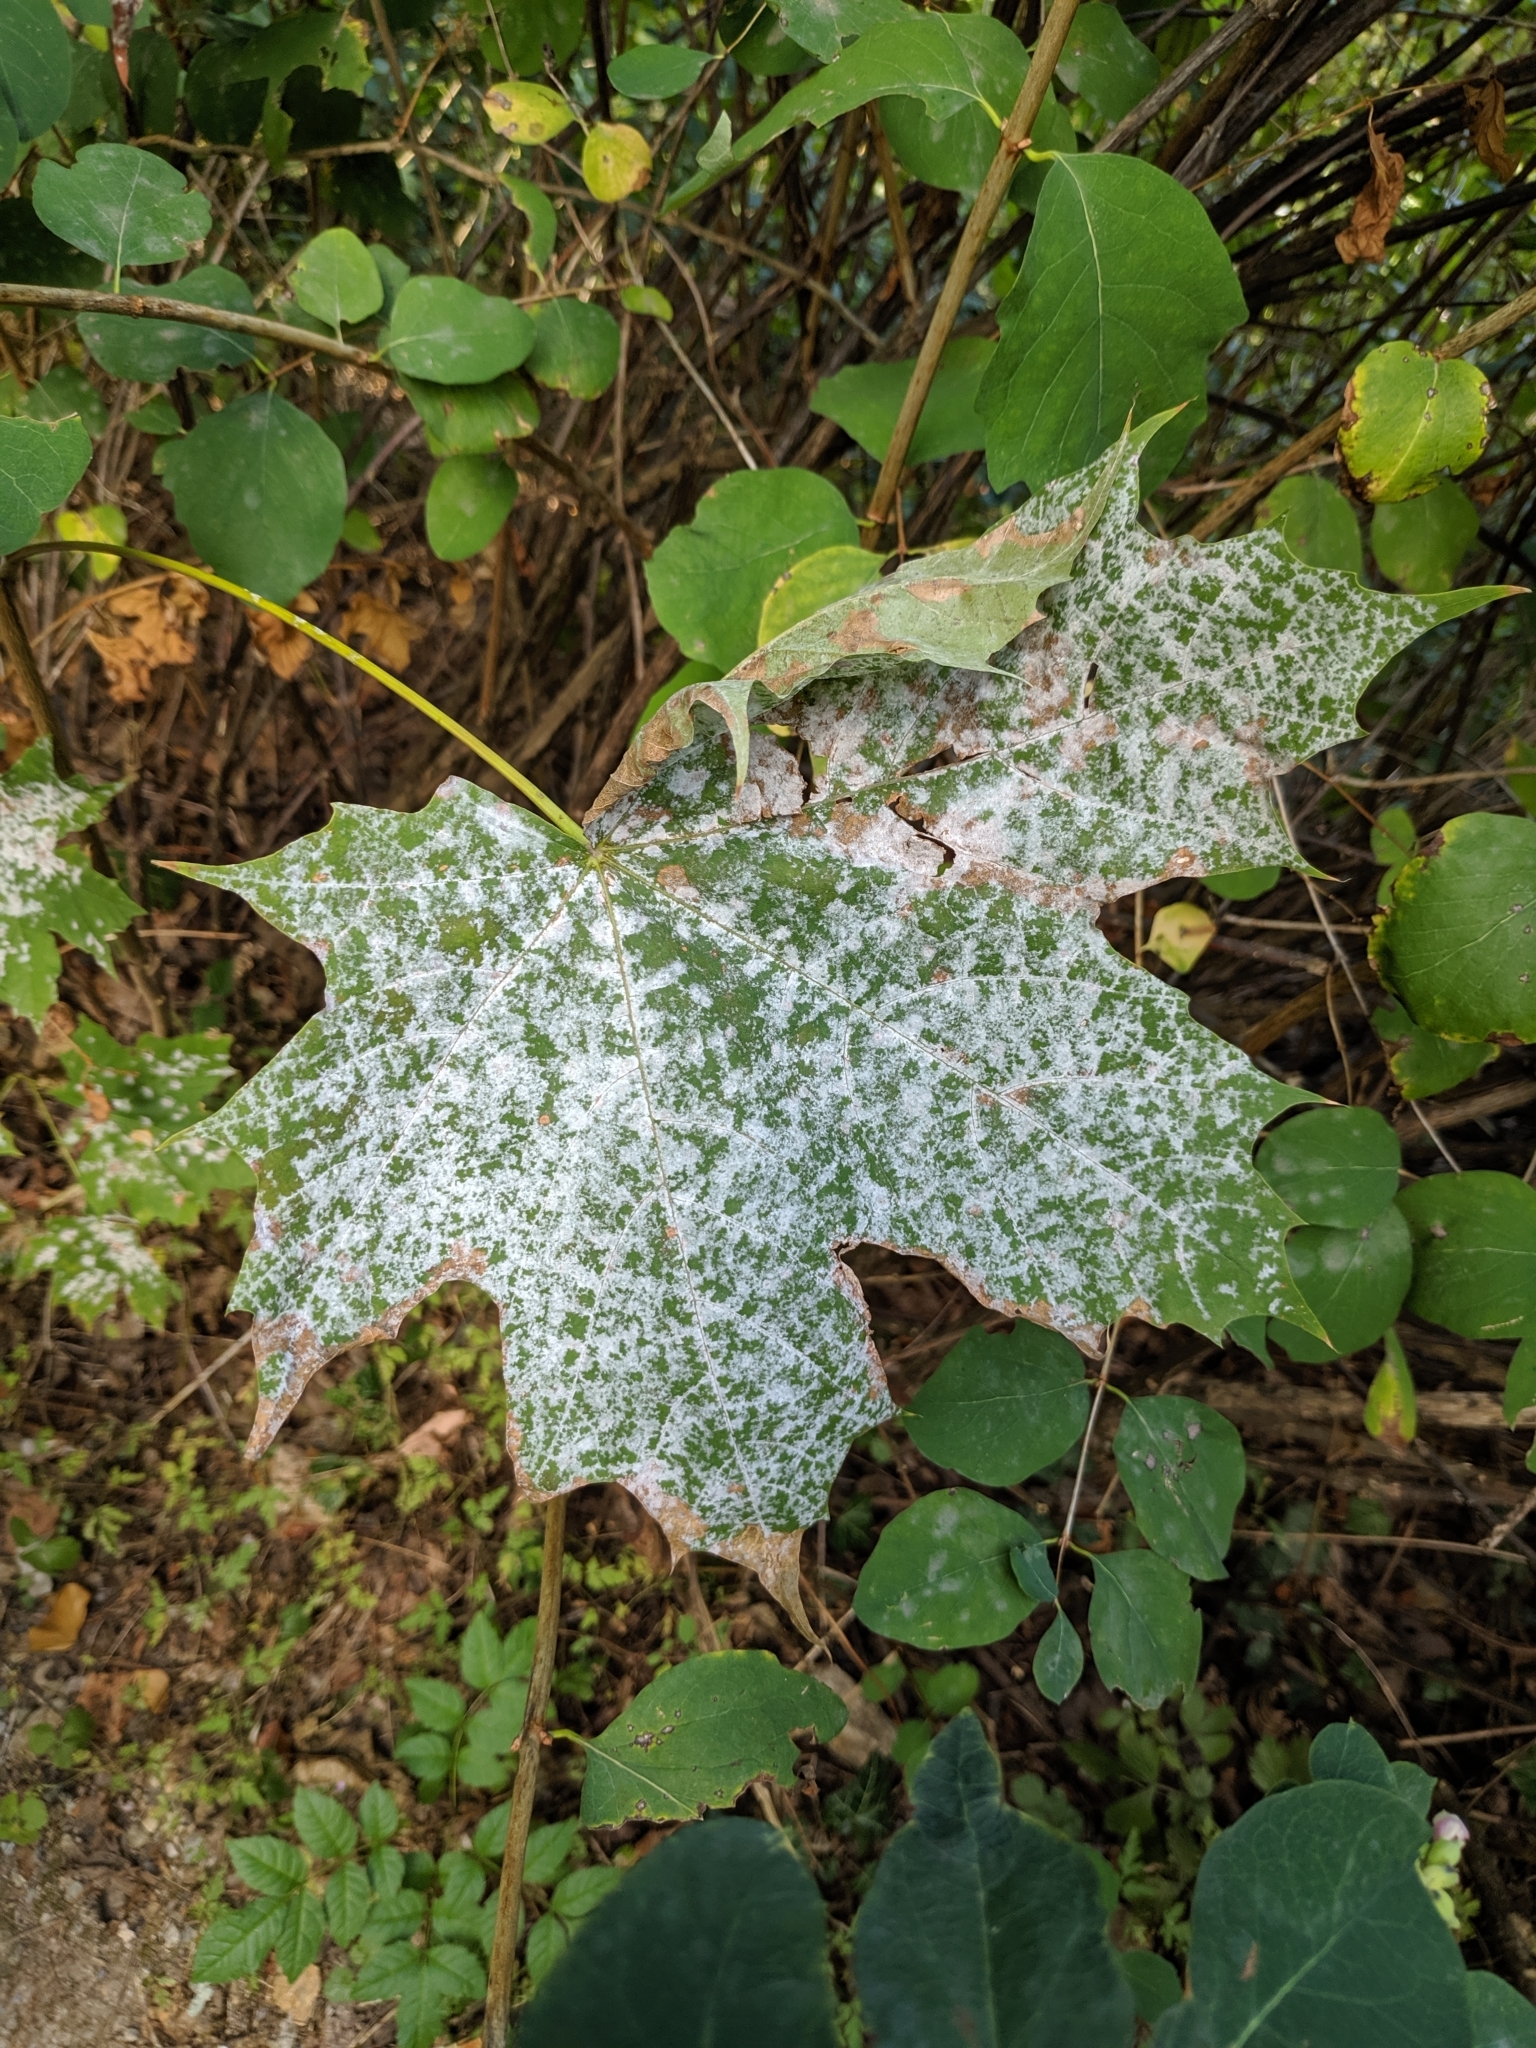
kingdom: Fungi
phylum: Ascomycota
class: Leotiomycetes
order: Helotiales
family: Erysiphaceae
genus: Sawadaea
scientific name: Sawadaea tulasnei
